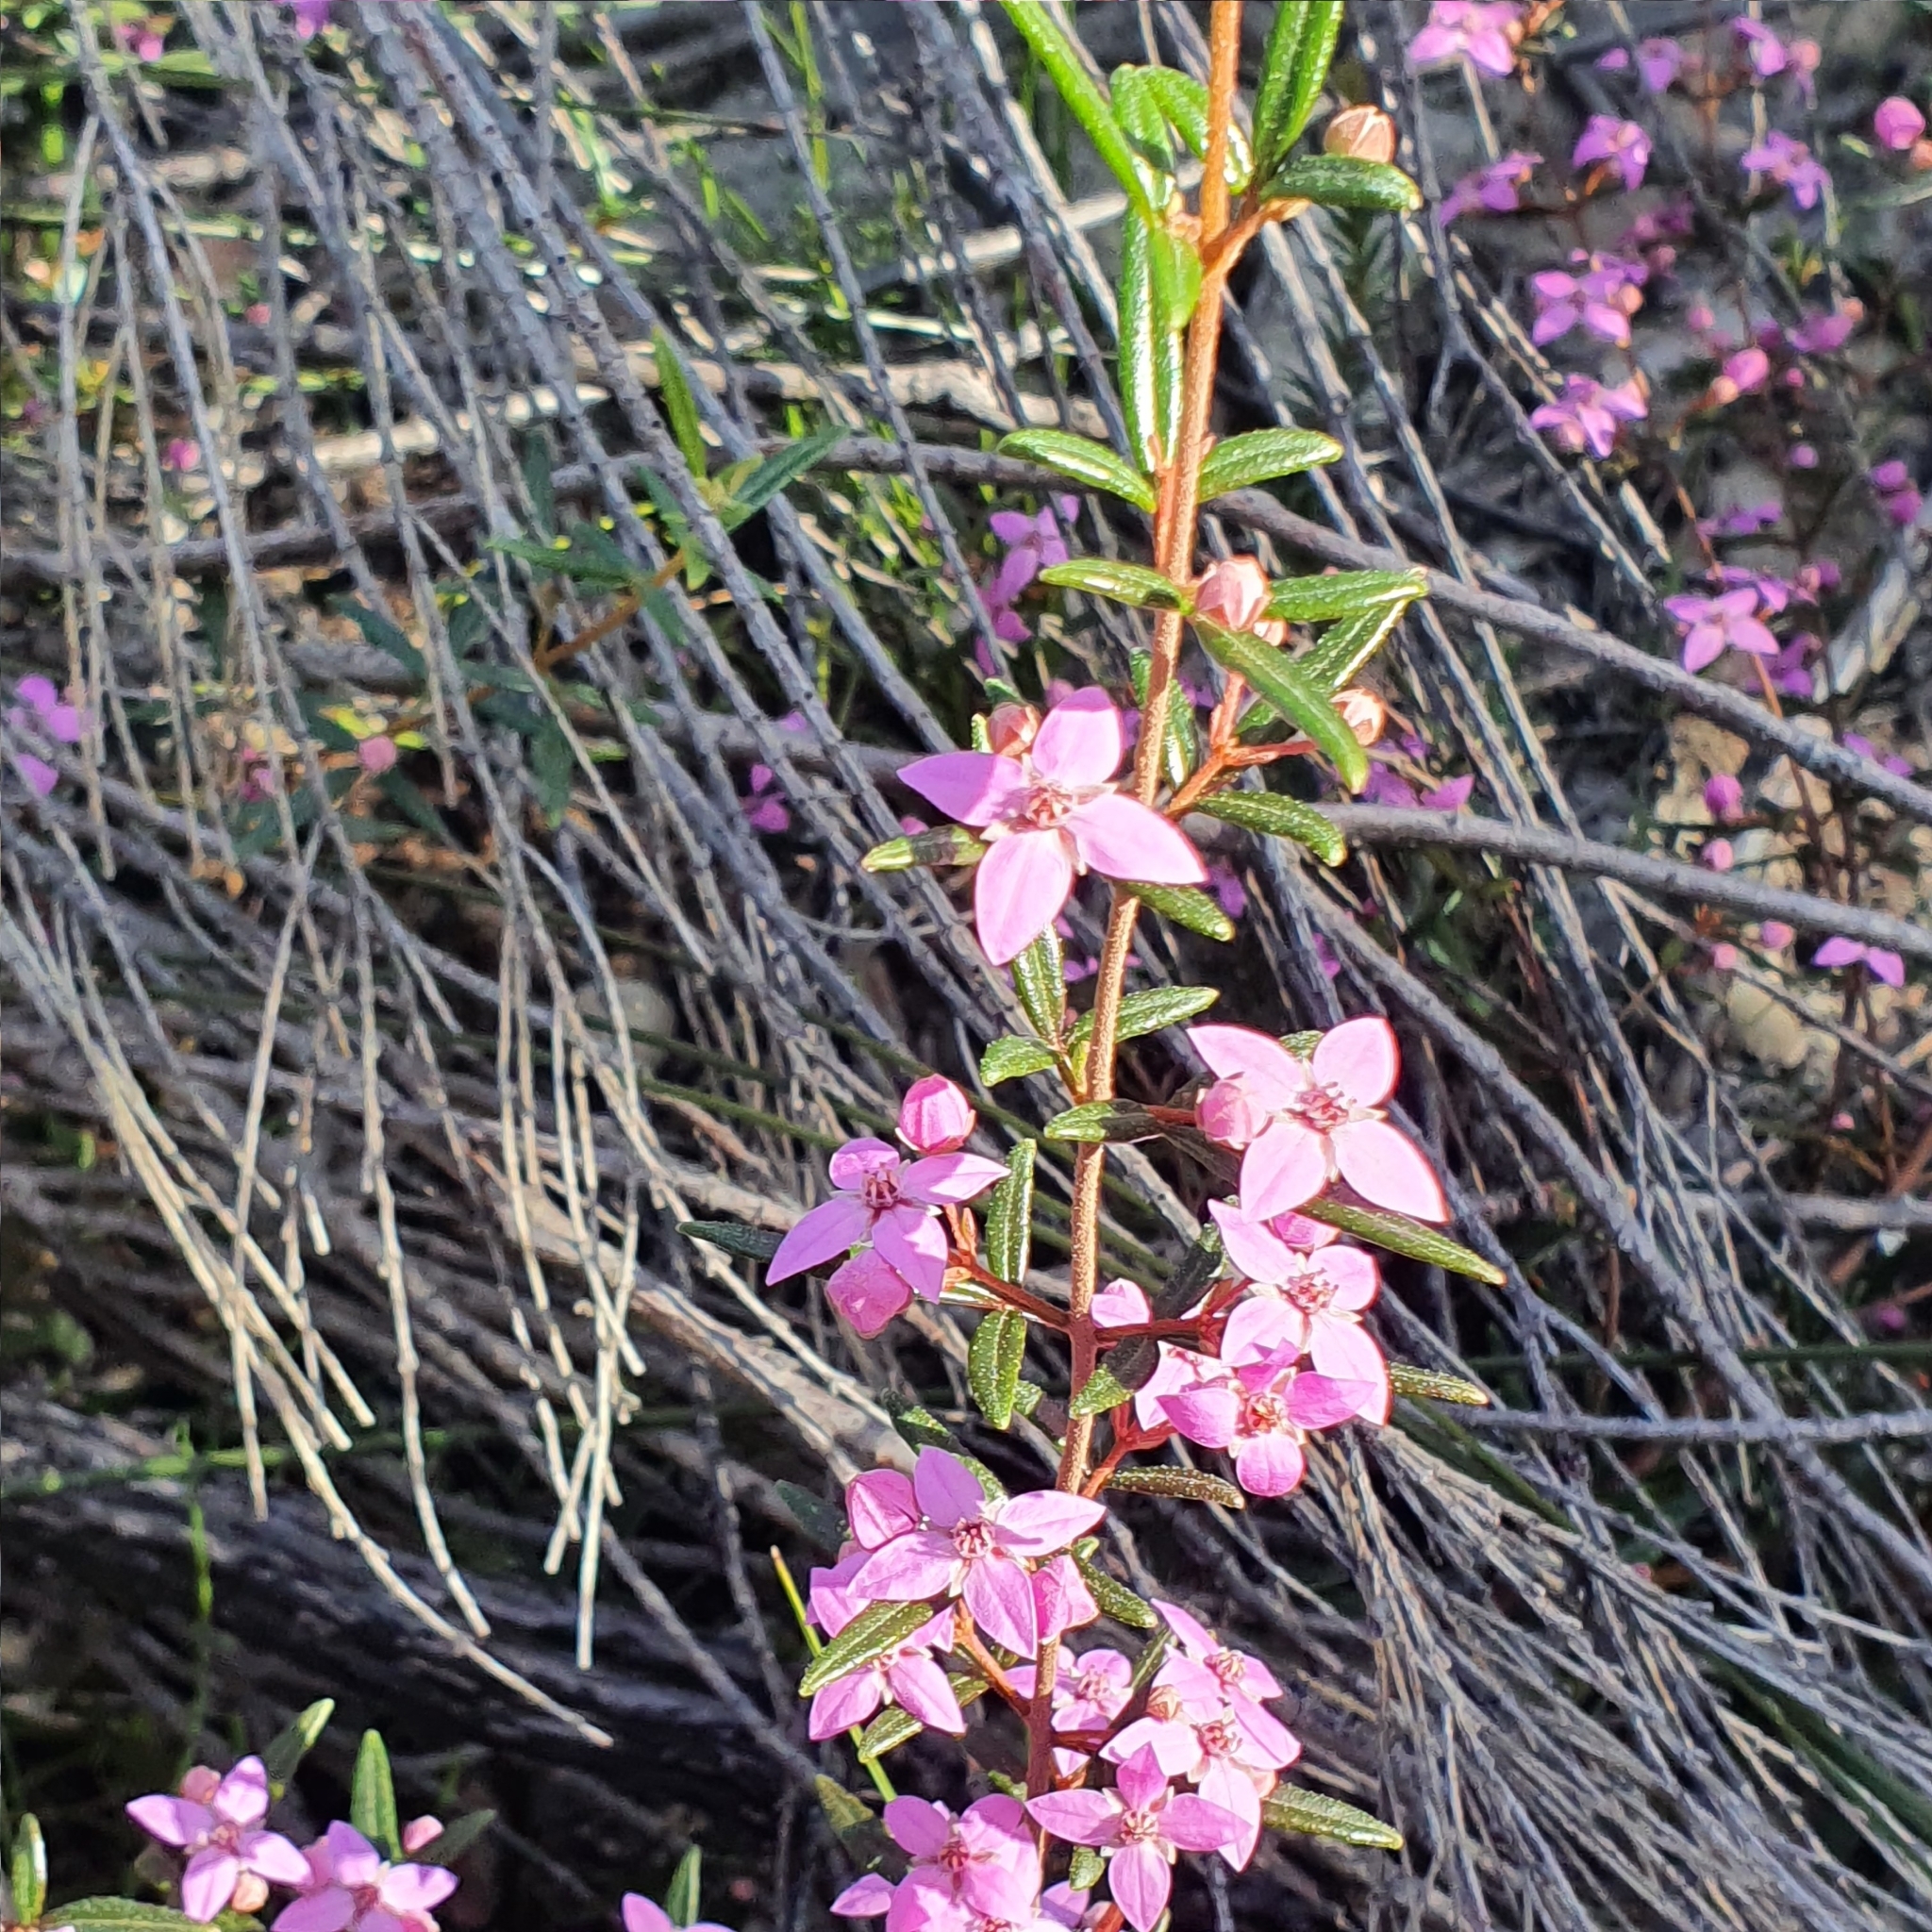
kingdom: Plantae
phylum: Tracheophyta
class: Magnoliopsida
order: Sapindales
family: Rutaceae
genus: Boronia
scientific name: Boronia ledifolia
